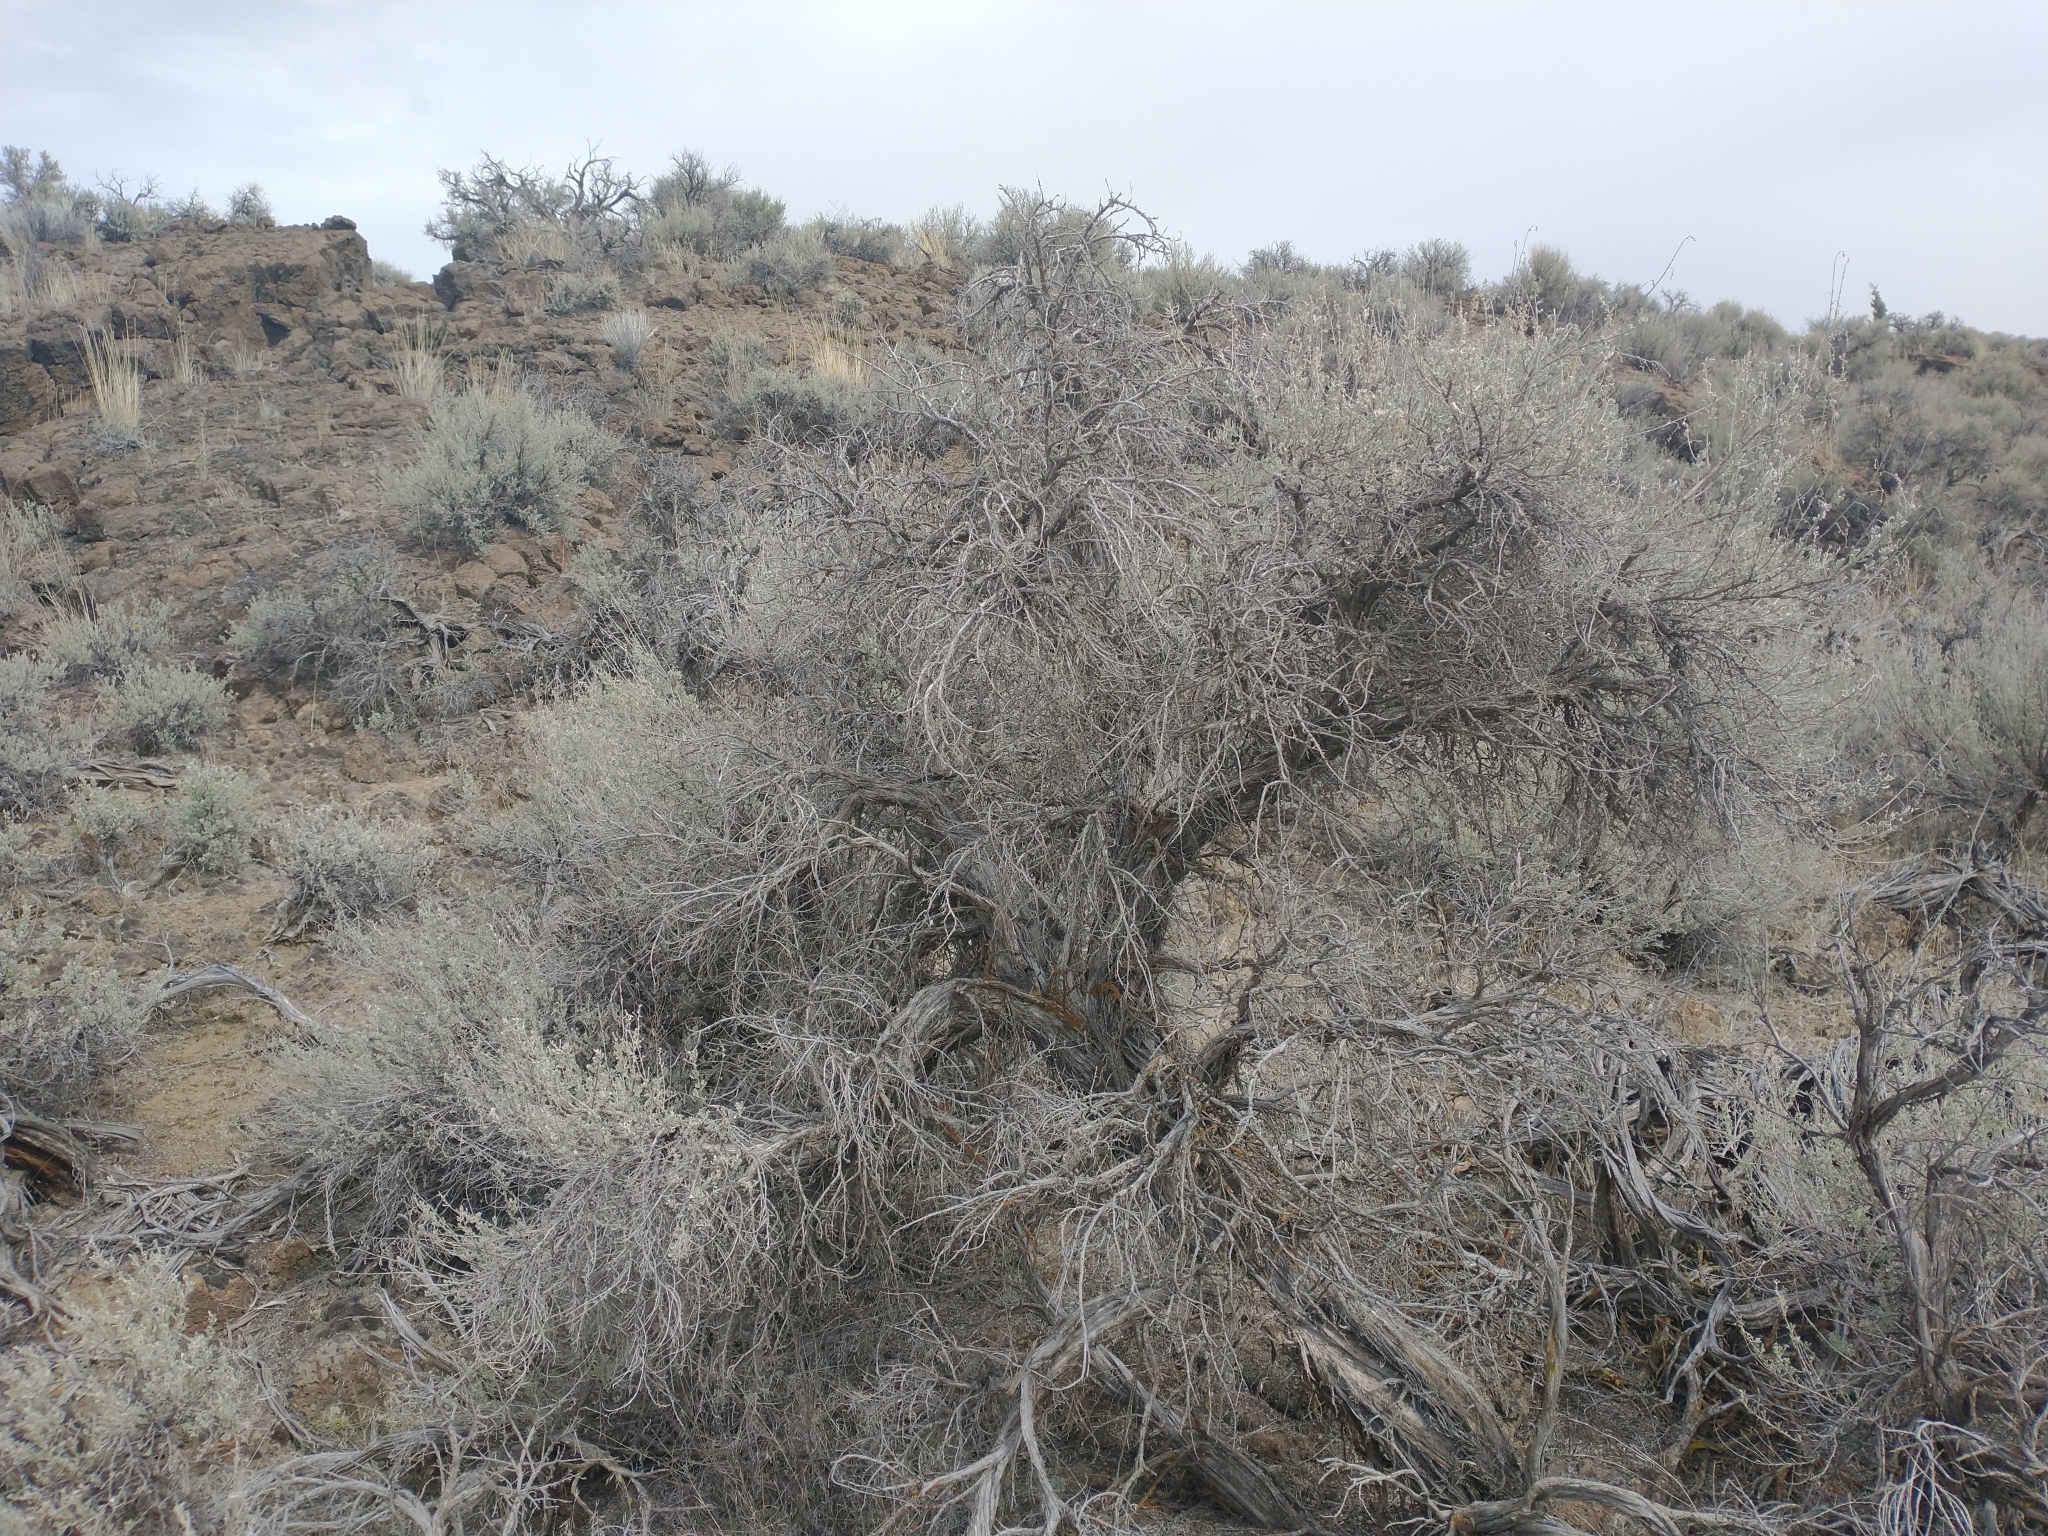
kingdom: Plantae
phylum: Tracheophyta
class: Magnoliopsida
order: Asterales
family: Asteraceae
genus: Artemisia
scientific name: Artemisia tridentata
